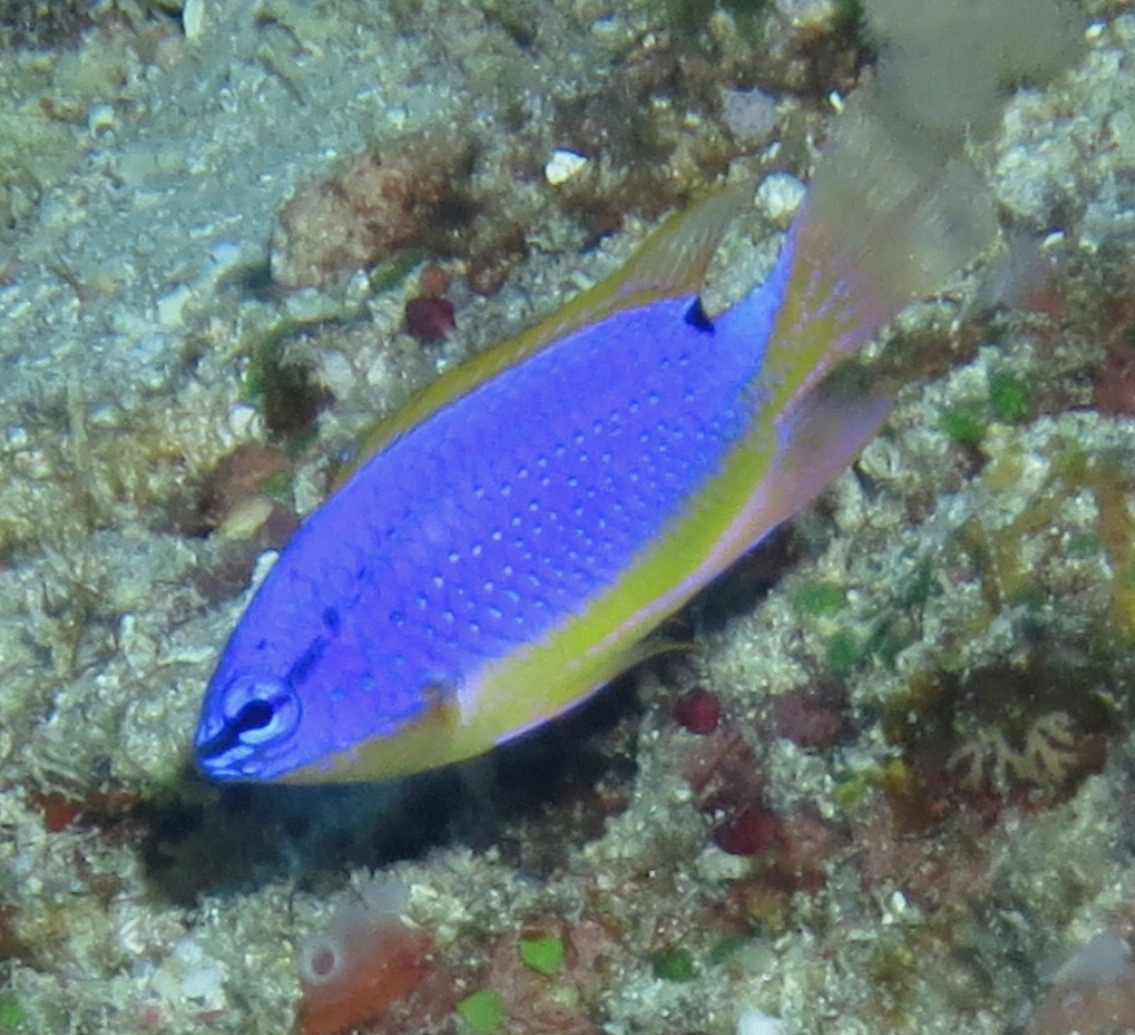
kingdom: Animalia
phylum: Chordata
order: Perciformes
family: Pomacentridae
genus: Chrysiptera
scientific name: Chrysiptera taupou
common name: Fiji damsel
